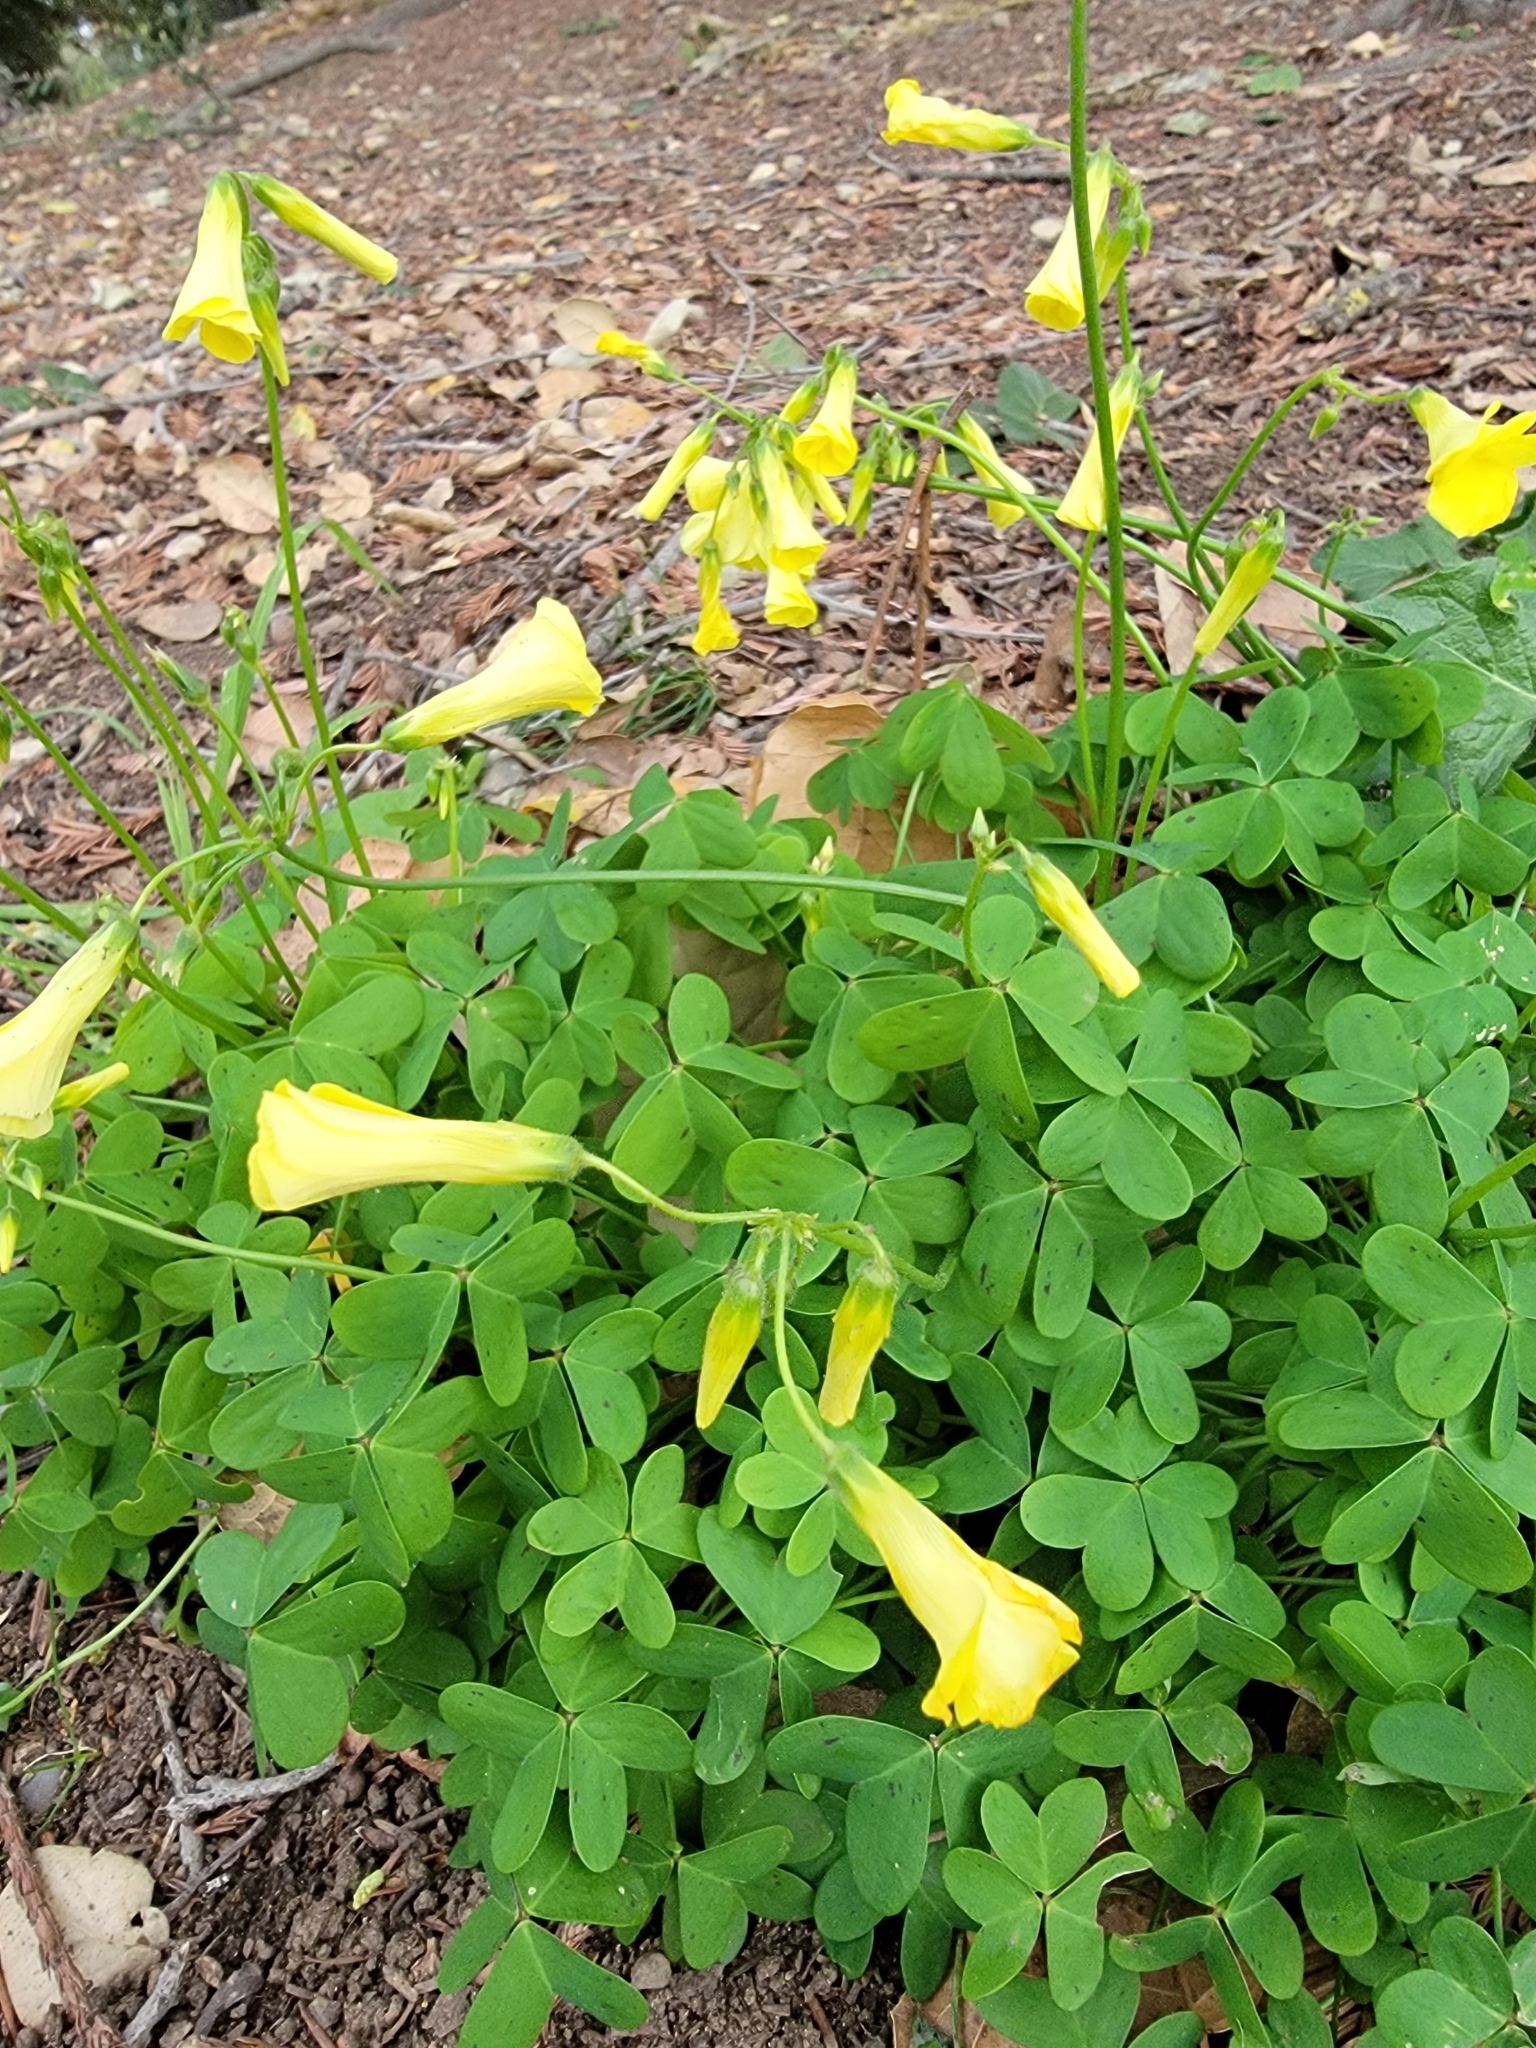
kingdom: Plantae
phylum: Tracheophyta
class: Magnoliopsida
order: Oxalidales
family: Oxalidaceae
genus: Oxalis
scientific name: Oxalis pes-caprae
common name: Bermuda-buttercup
